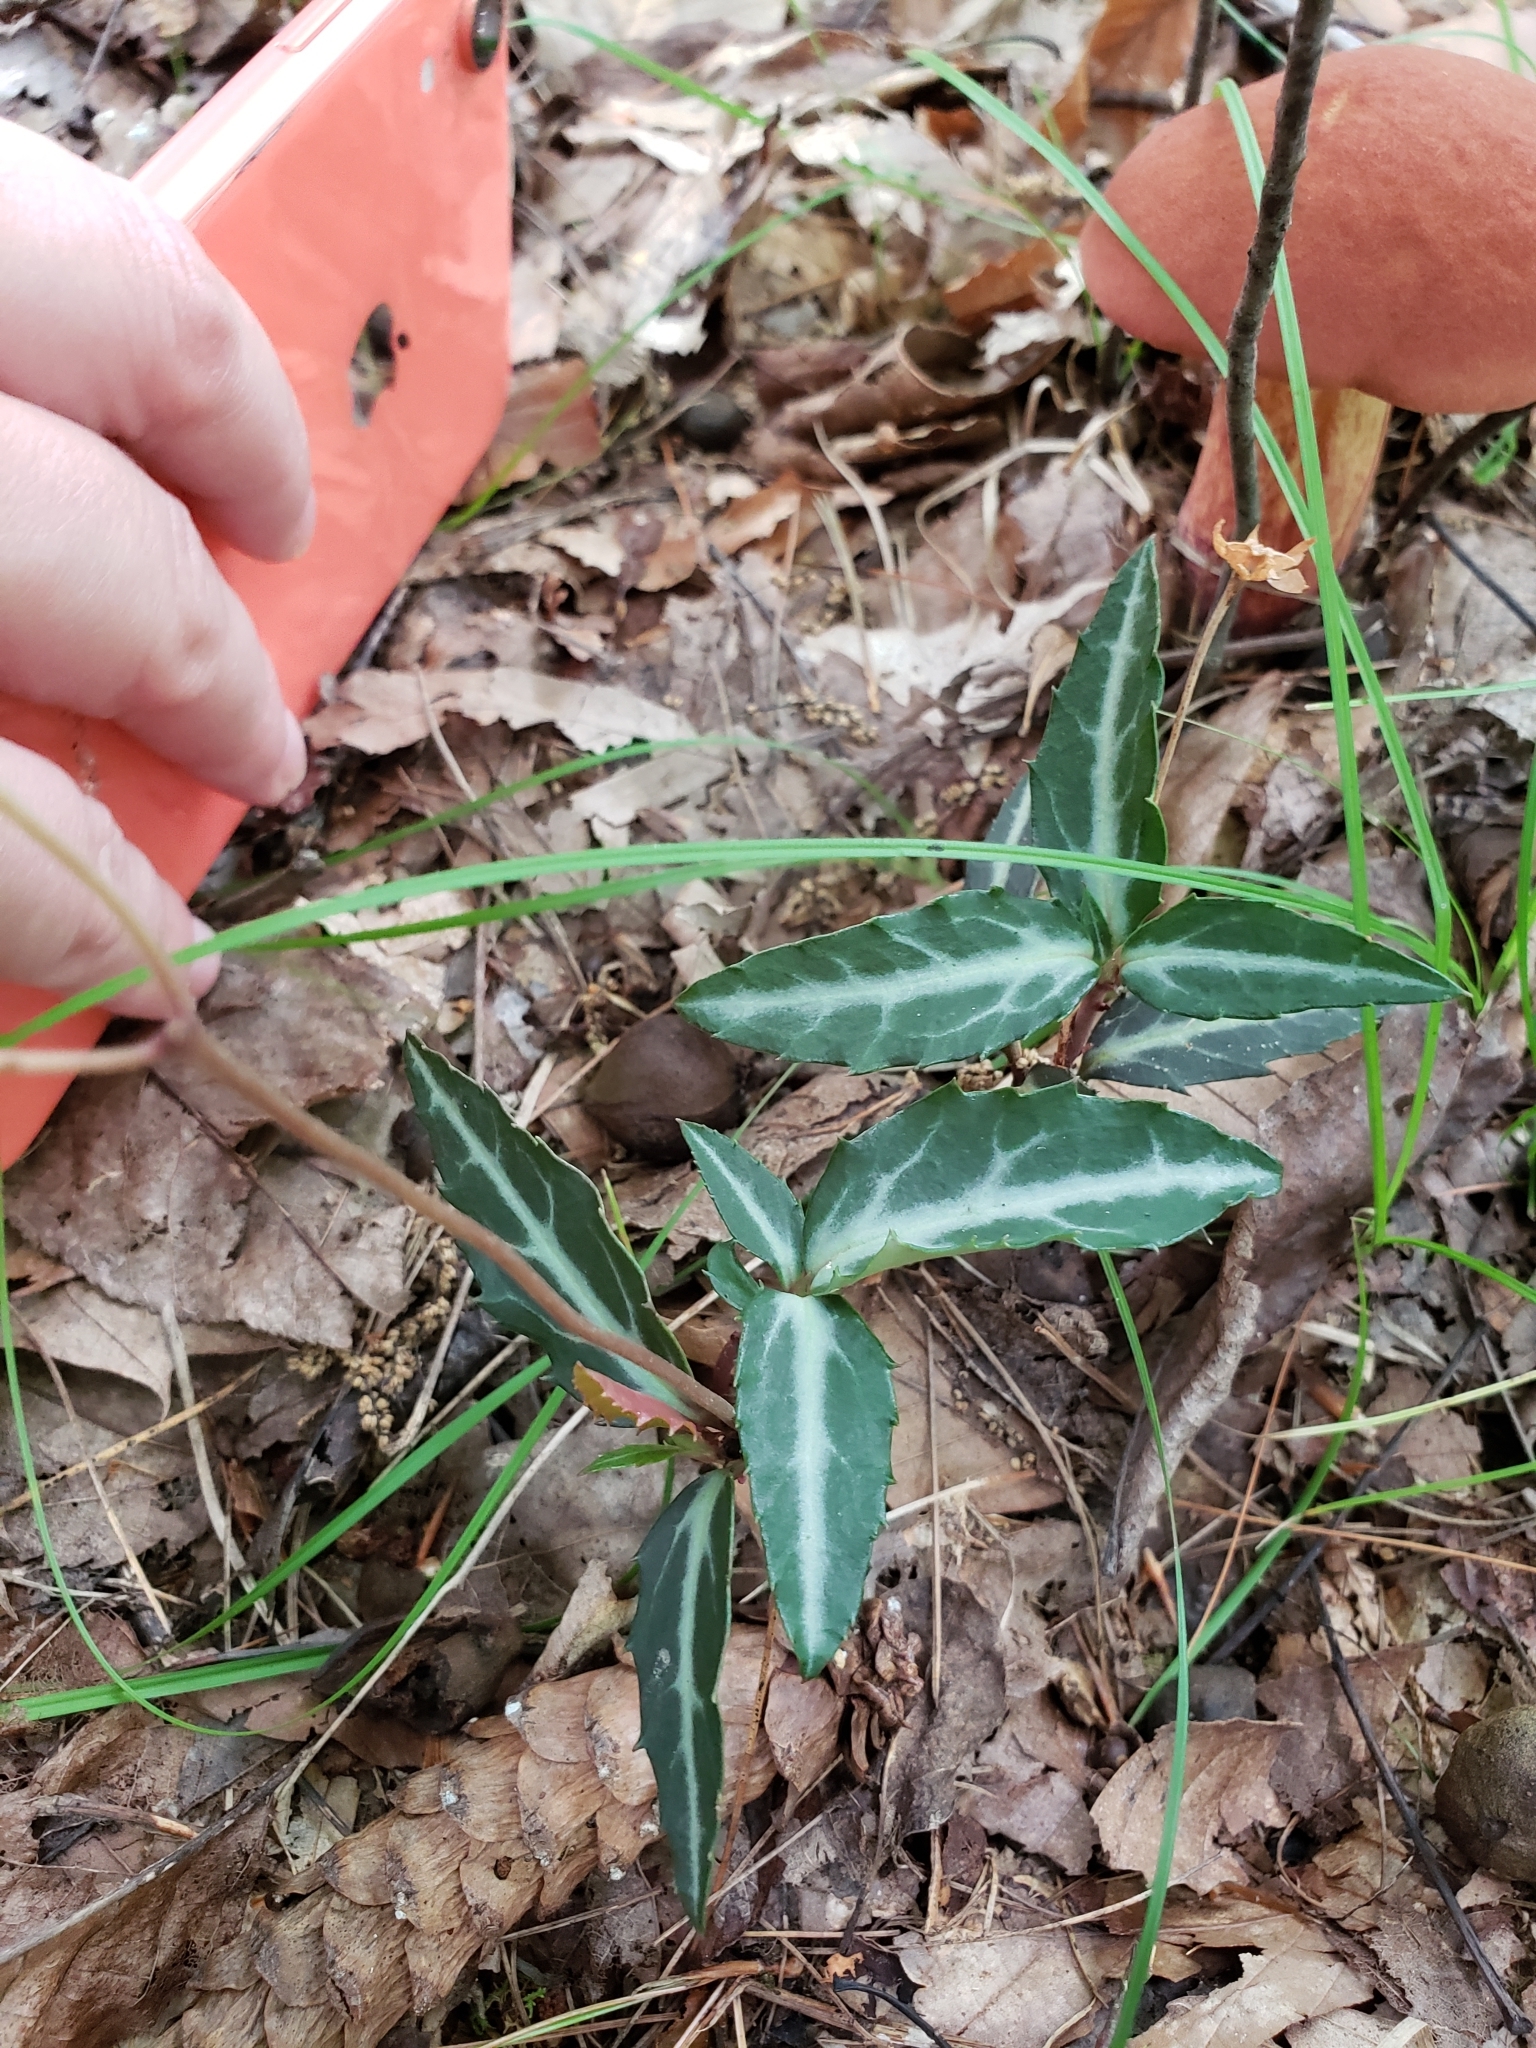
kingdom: Plantae
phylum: Tracheophyta
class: Magnoliopsida
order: Ericales
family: Ericaceae
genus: Chimaphila
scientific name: Chimaphila maculata
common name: Spotted pipsissewa
